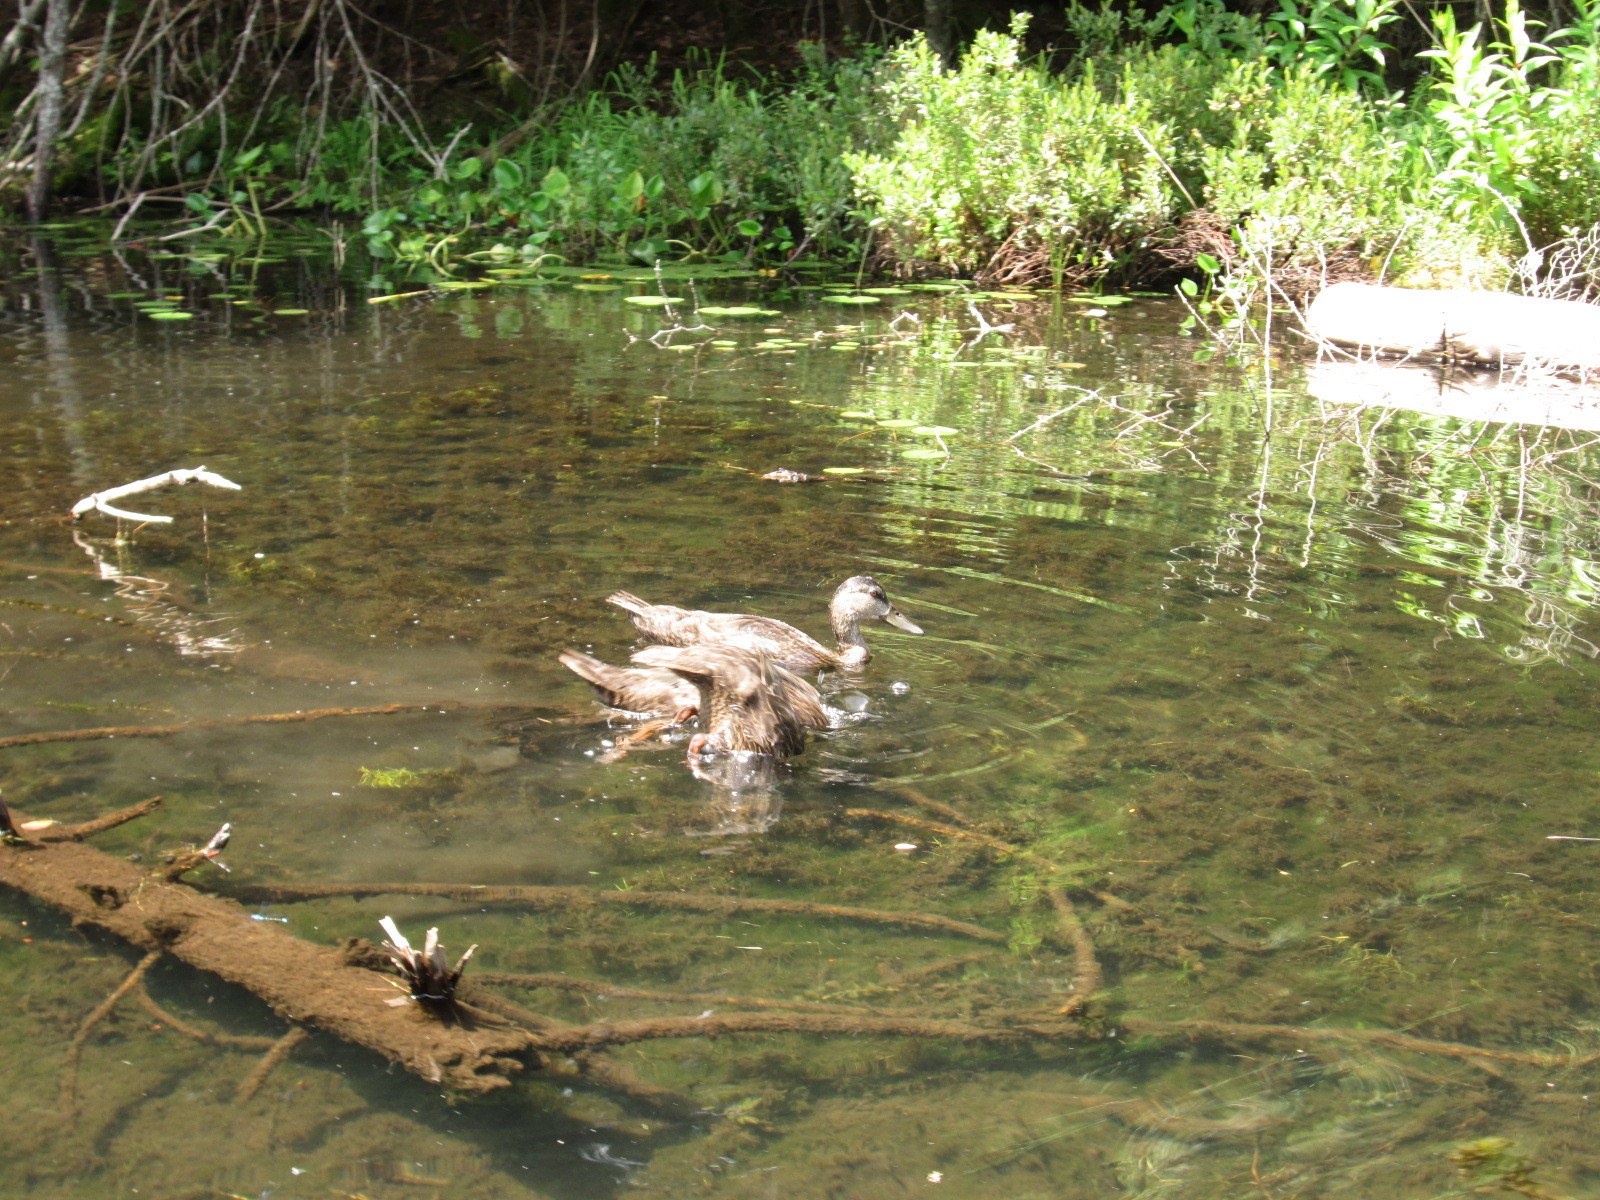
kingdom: Animalia
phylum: Chordata
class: Aves
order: Anseriformes
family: Anatidae
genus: Anas
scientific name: Anas platyrhynchos
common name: Mallard
